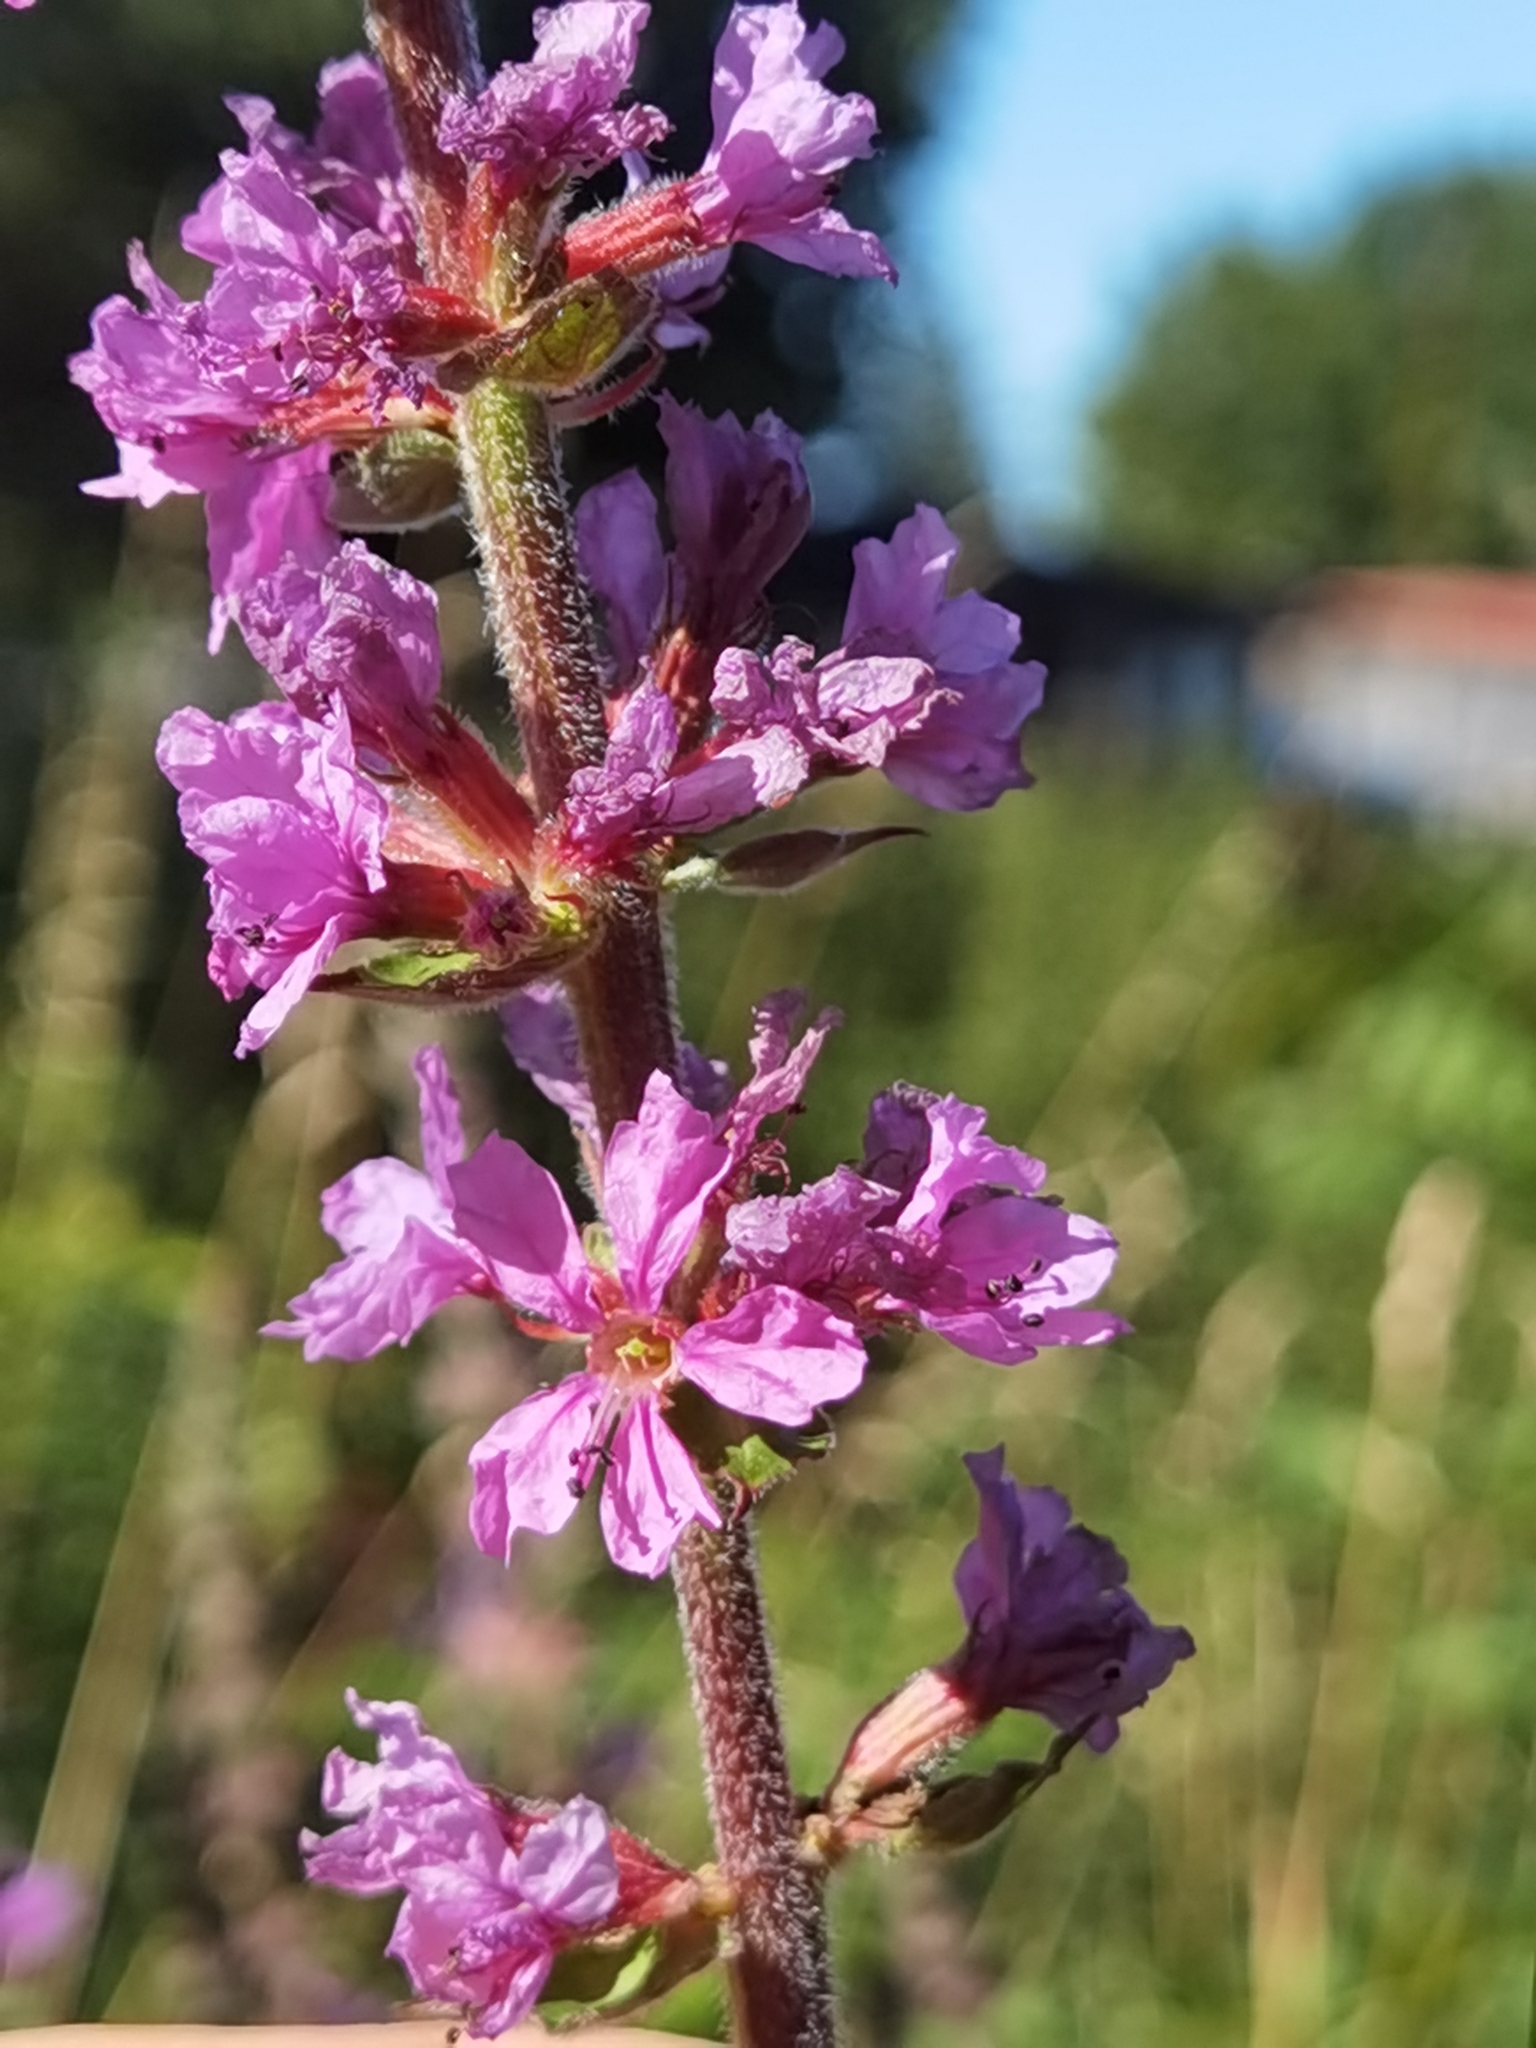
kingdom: Plantae
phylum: Tracheophyta
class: Magnoliopsida
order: Myrtales
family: Lythraceae
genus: Lythrum
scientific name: Lythrum salicaria
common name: Purple loosestrife
